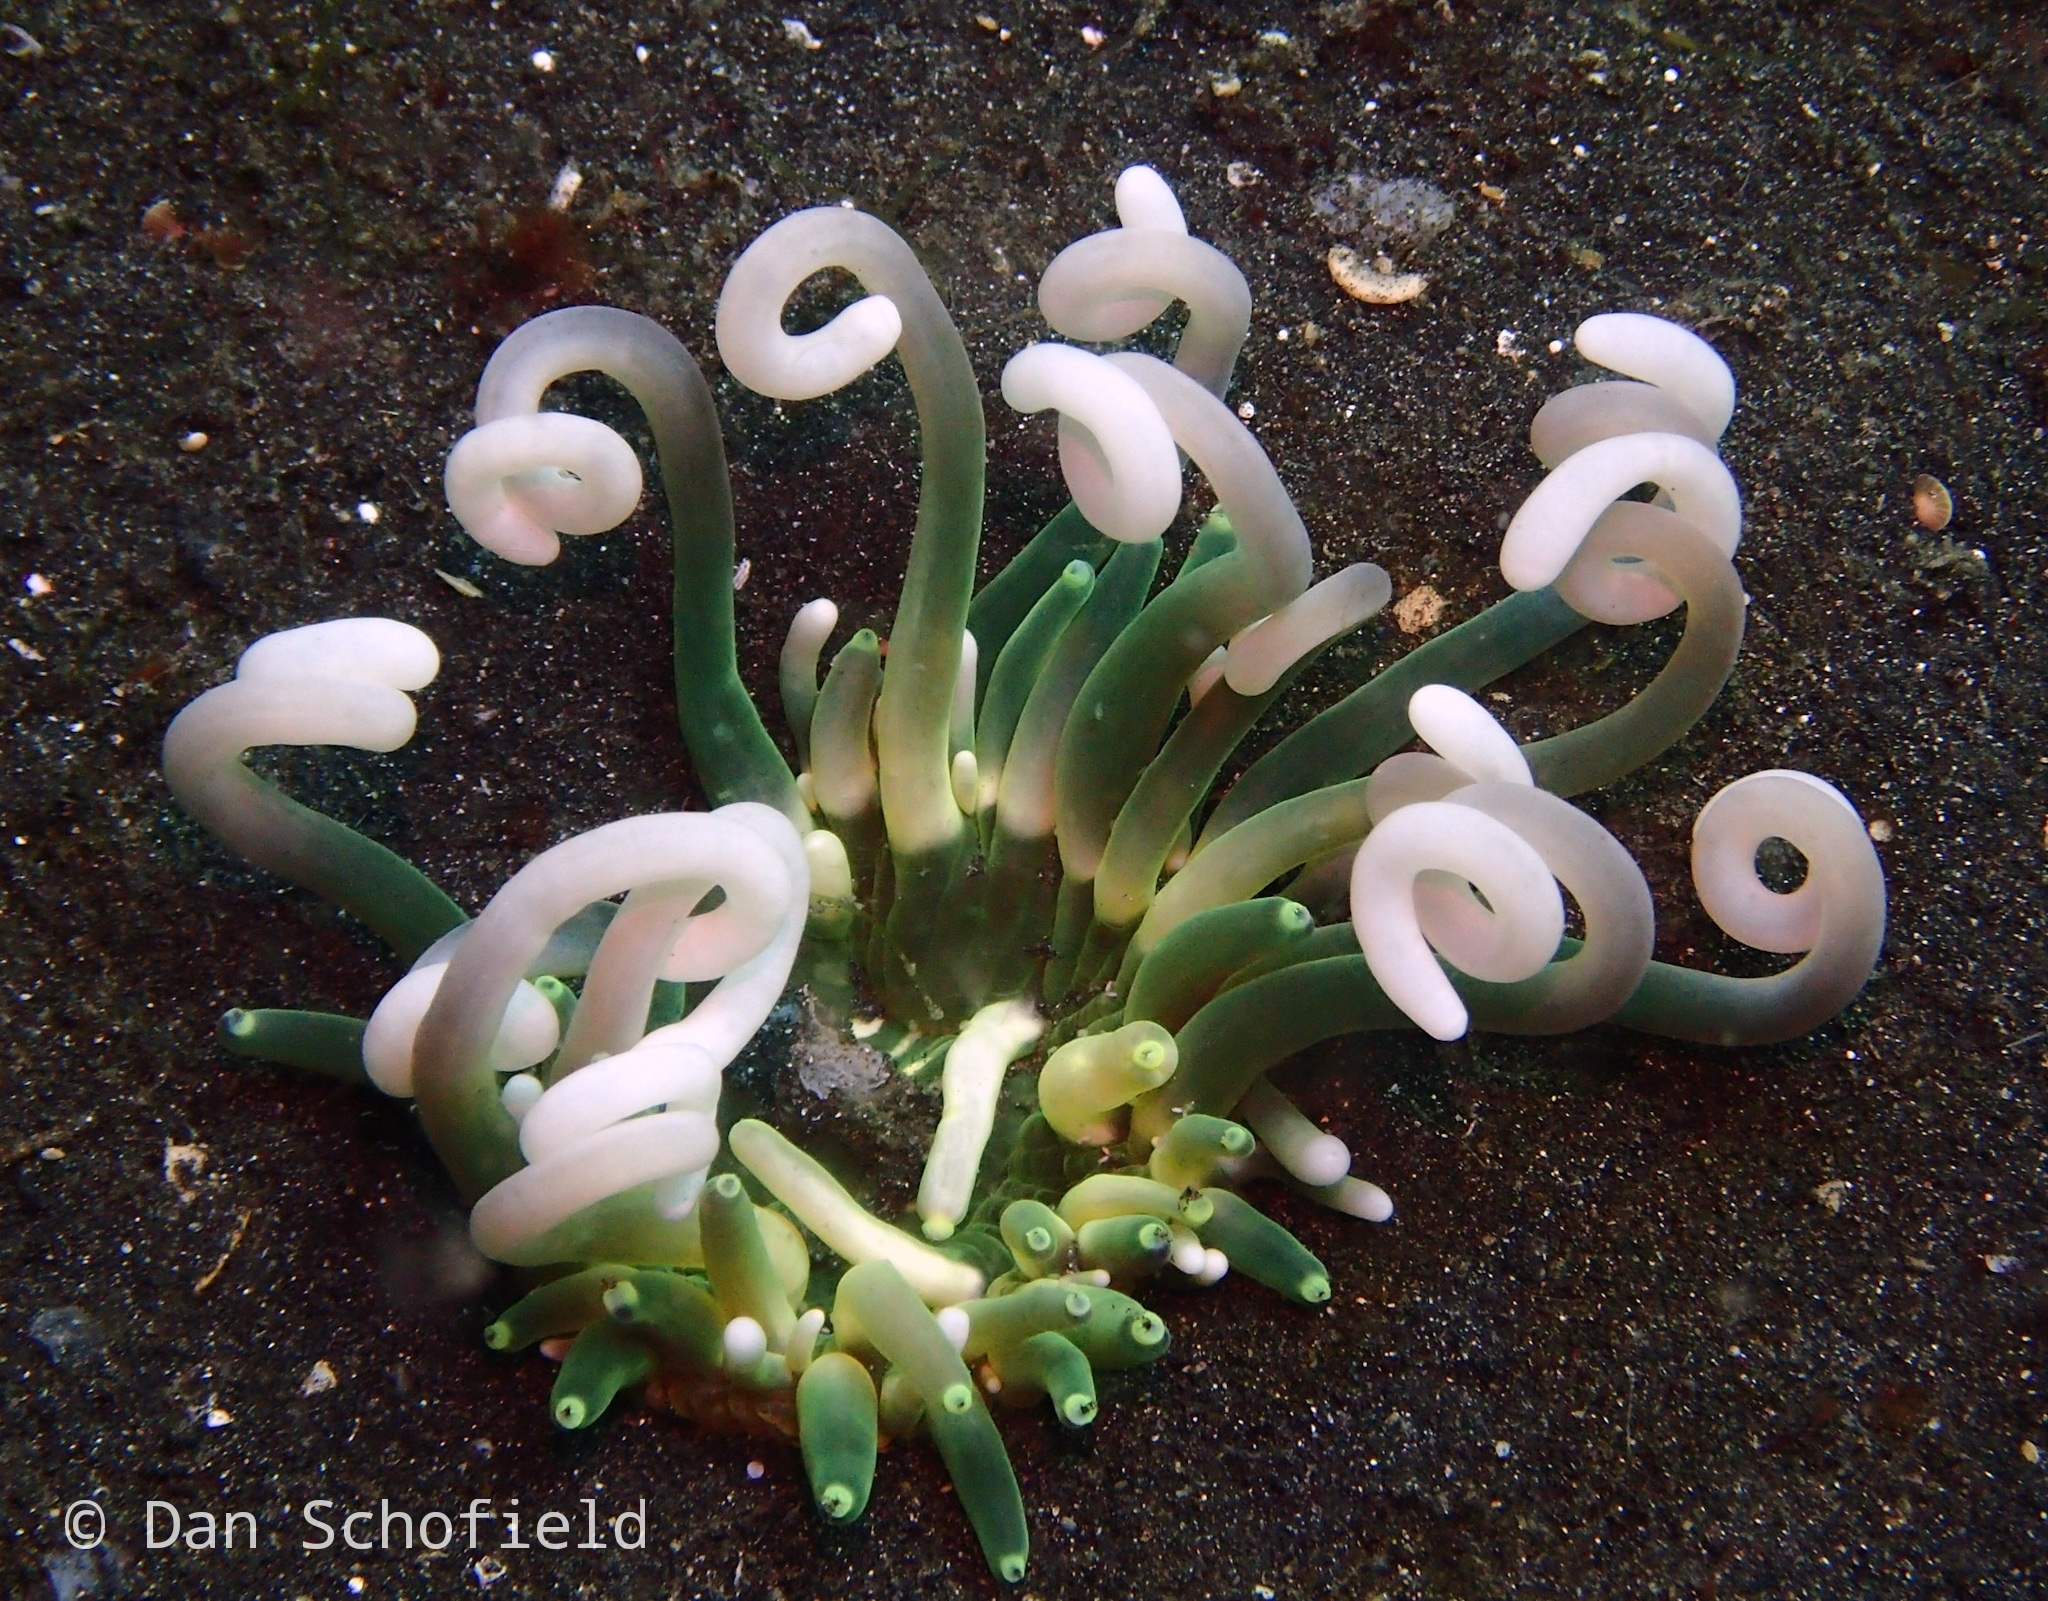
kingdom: Animalia
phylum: Cnidaria
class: Anthozoa
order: Actiniaria
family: Heteractidae
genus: Heteractis
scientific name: Heteractis
